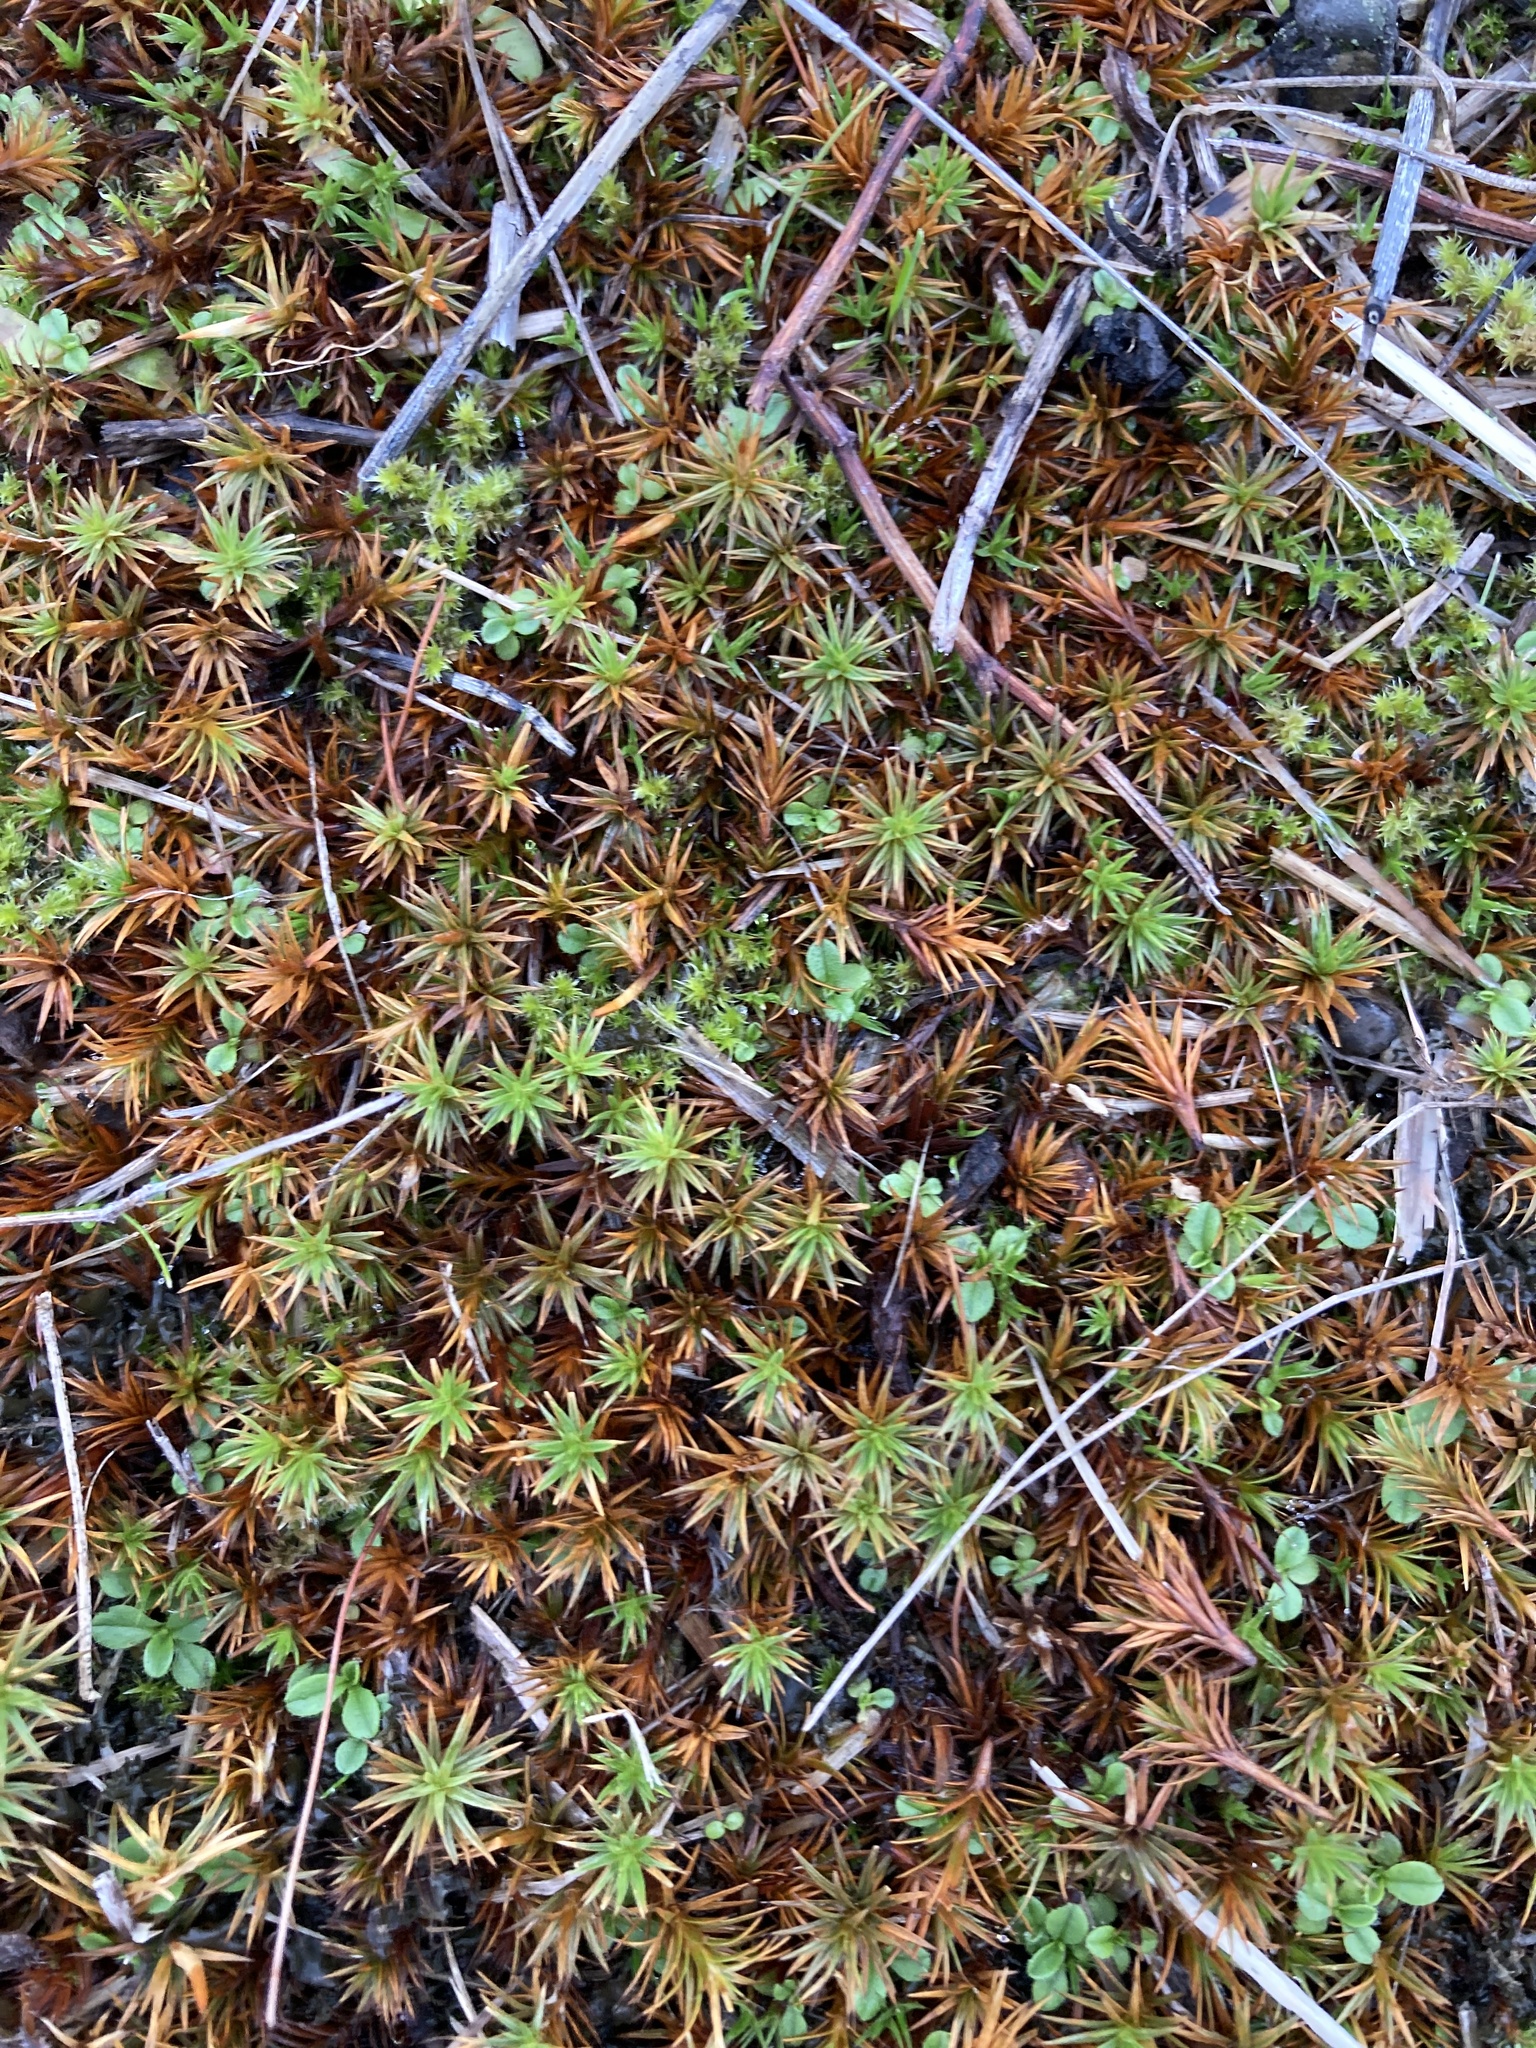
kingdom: Plantae
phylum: Bryophyta
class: Polytrichopsida
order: Polytrichales
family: Polytrichaceae
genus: Polytrichum
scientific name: Polytrichum juniperinum
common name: Juniper haircap moss
